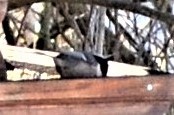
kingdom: Animalia
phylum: Chordata
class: Aves
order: Passeriformes
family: Paridae
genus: Periparus
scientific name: Periparus ater
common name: Coal tit
